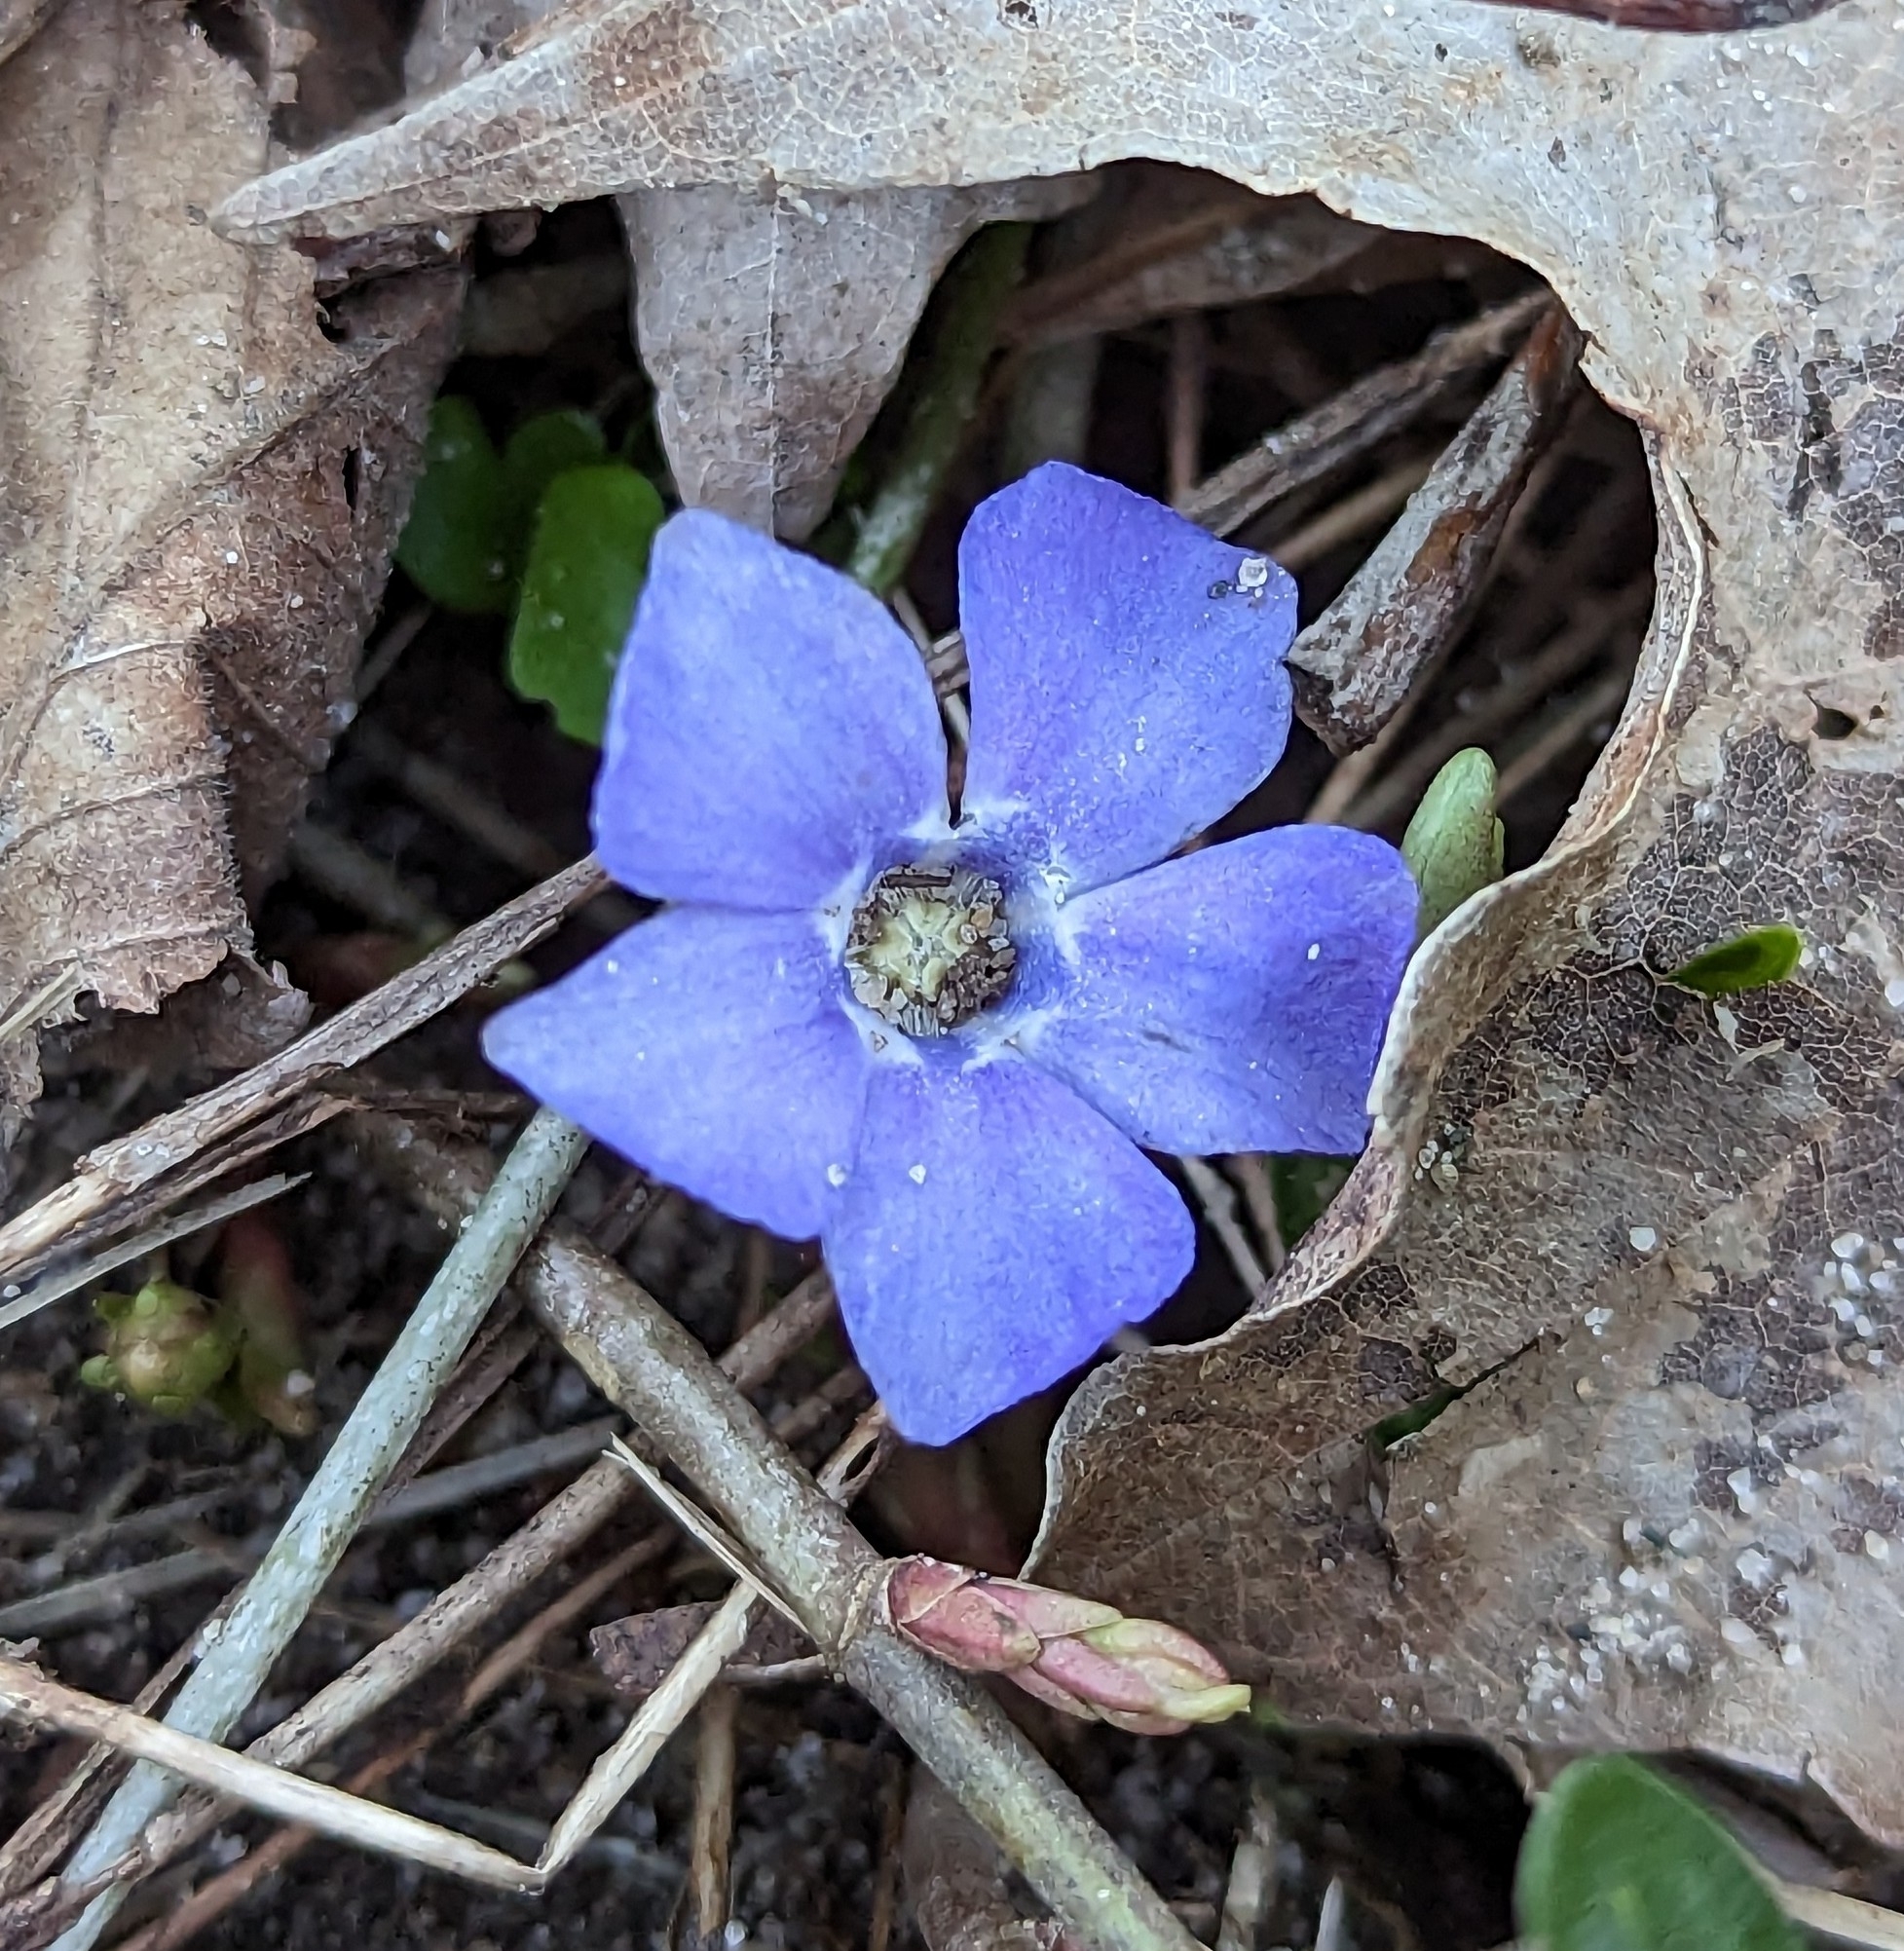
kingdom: Plantae
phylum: Tracheophyta
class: Magnoliopsida
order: Gentianales
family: Apocynaceae
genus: Vinca
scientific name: Vinca minor
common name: Lesser periwinkle
